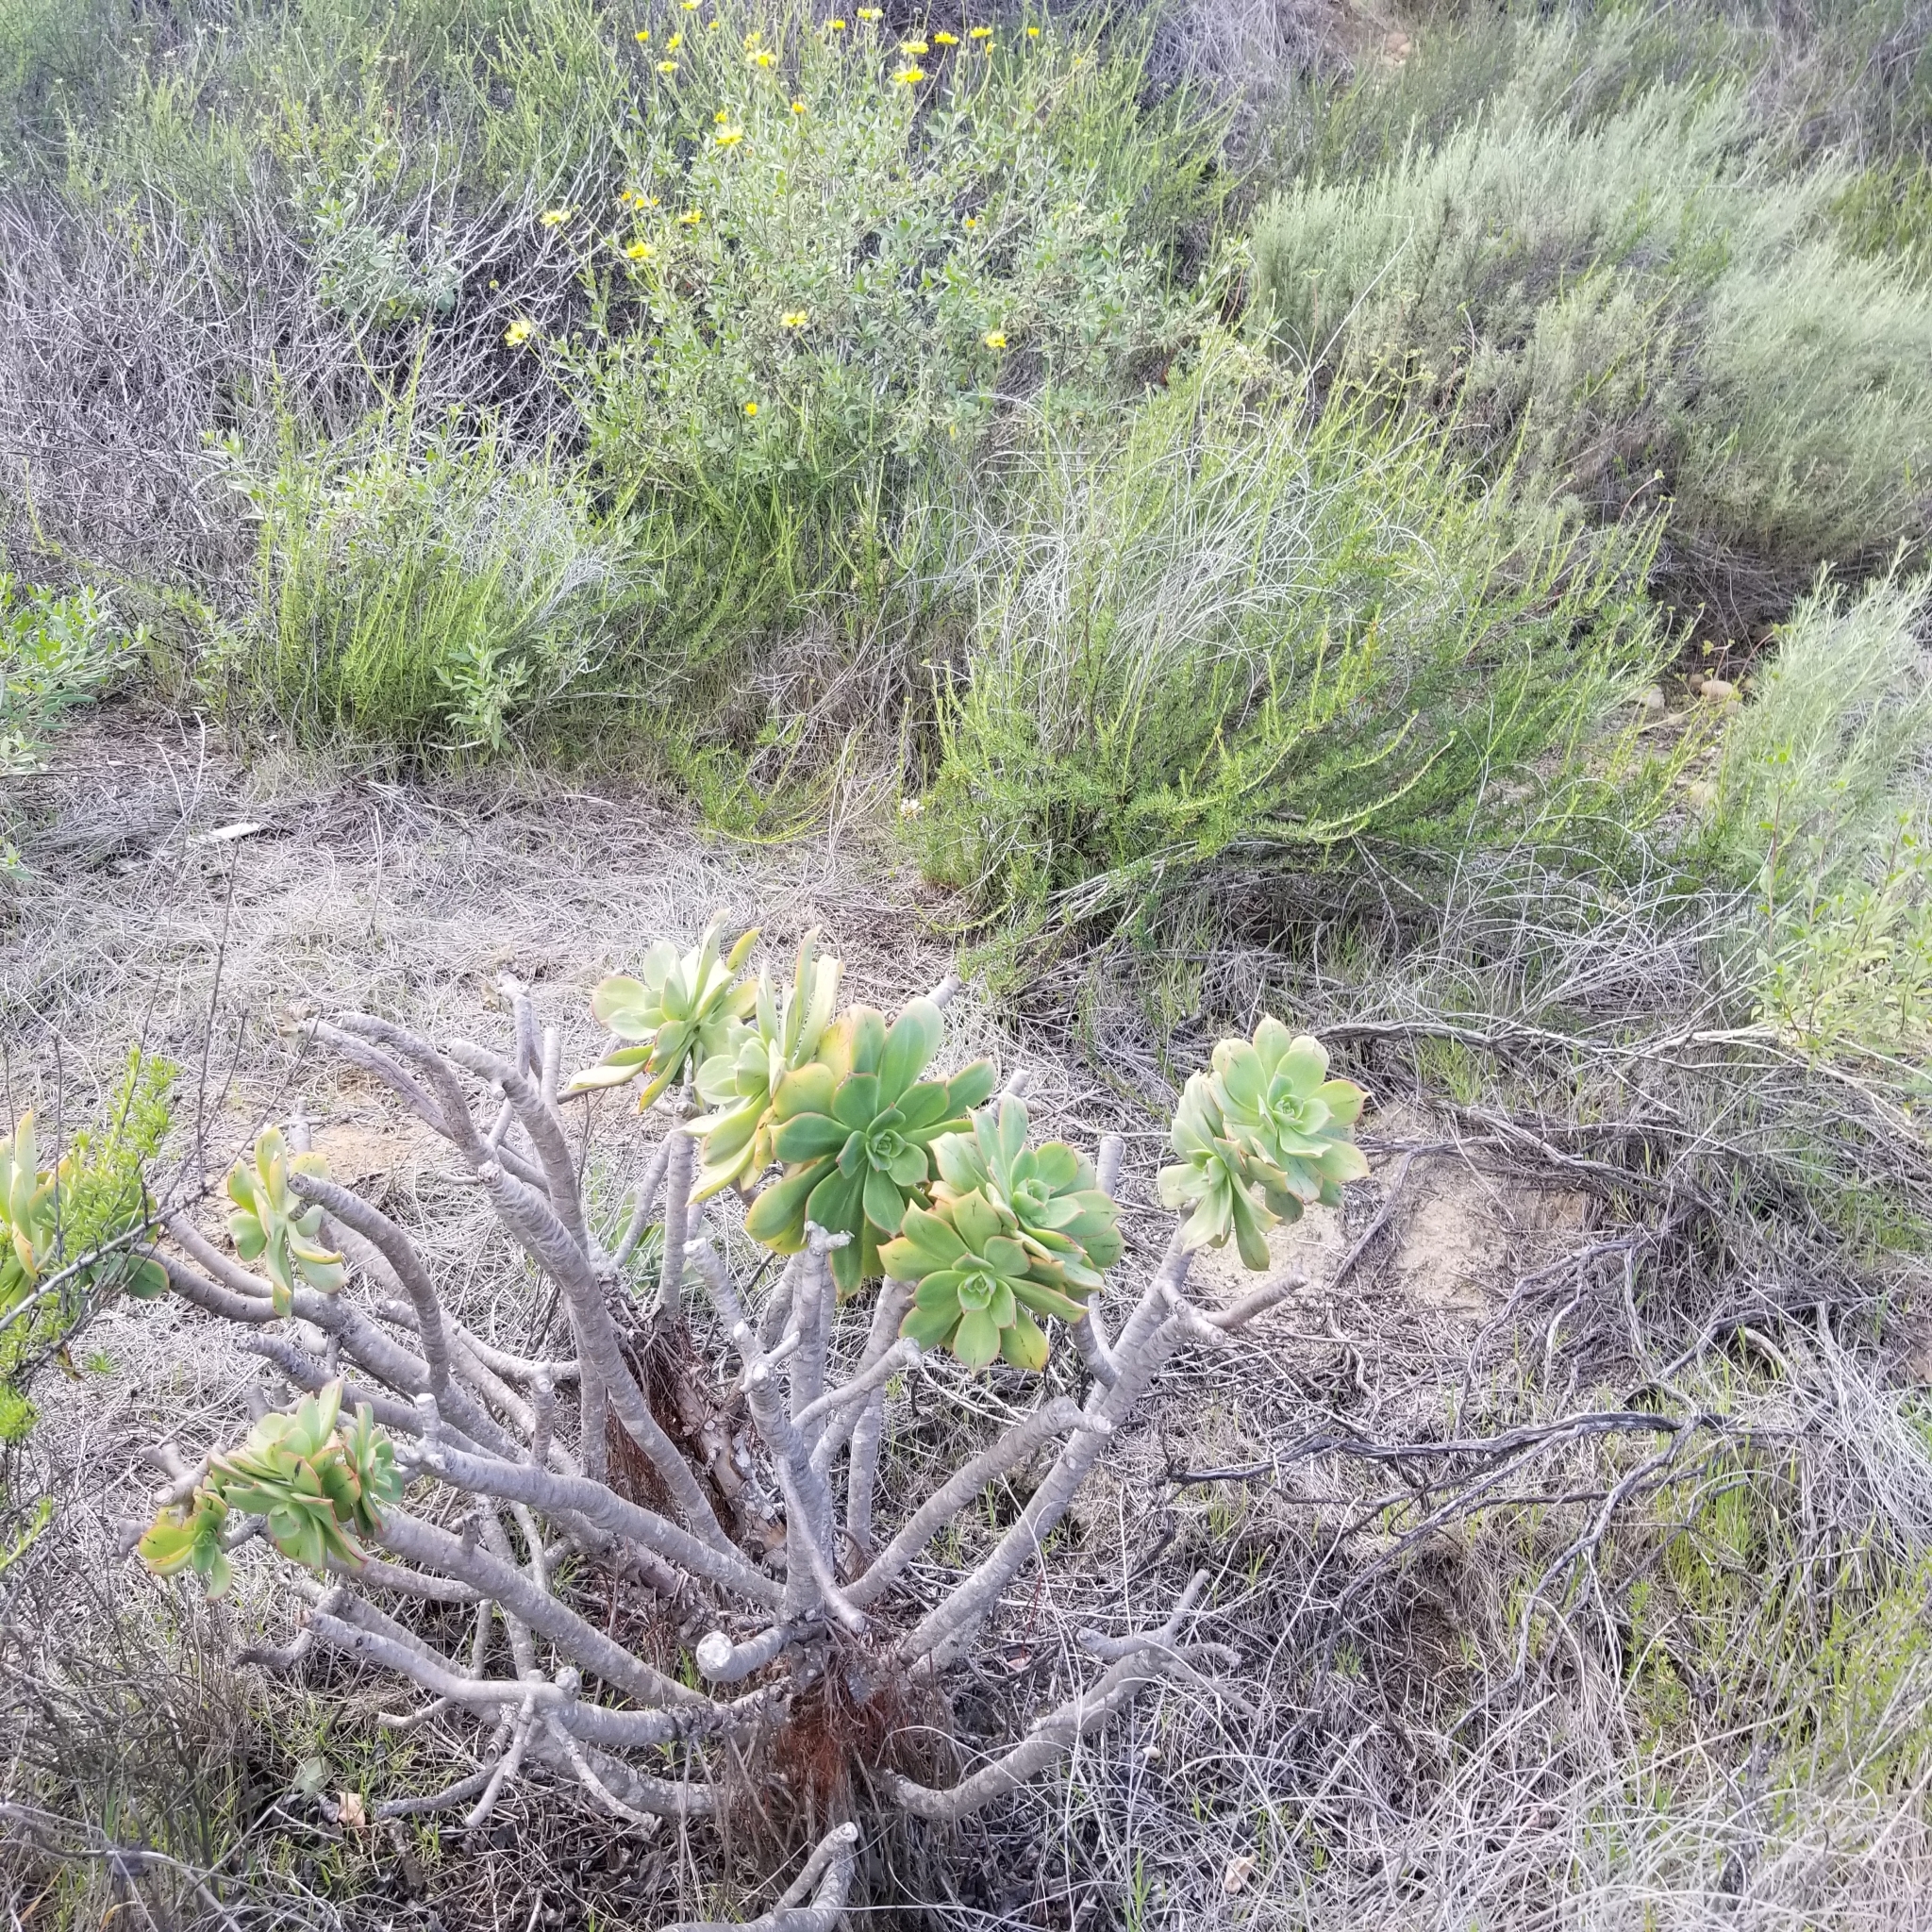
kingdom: Plantae
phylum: Tracheophyta
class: Magnoliopsida
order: Saxifragales
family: Crassulaceae
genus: Aeonium
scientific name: Aeonium arboreum
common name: Tree aeonium
